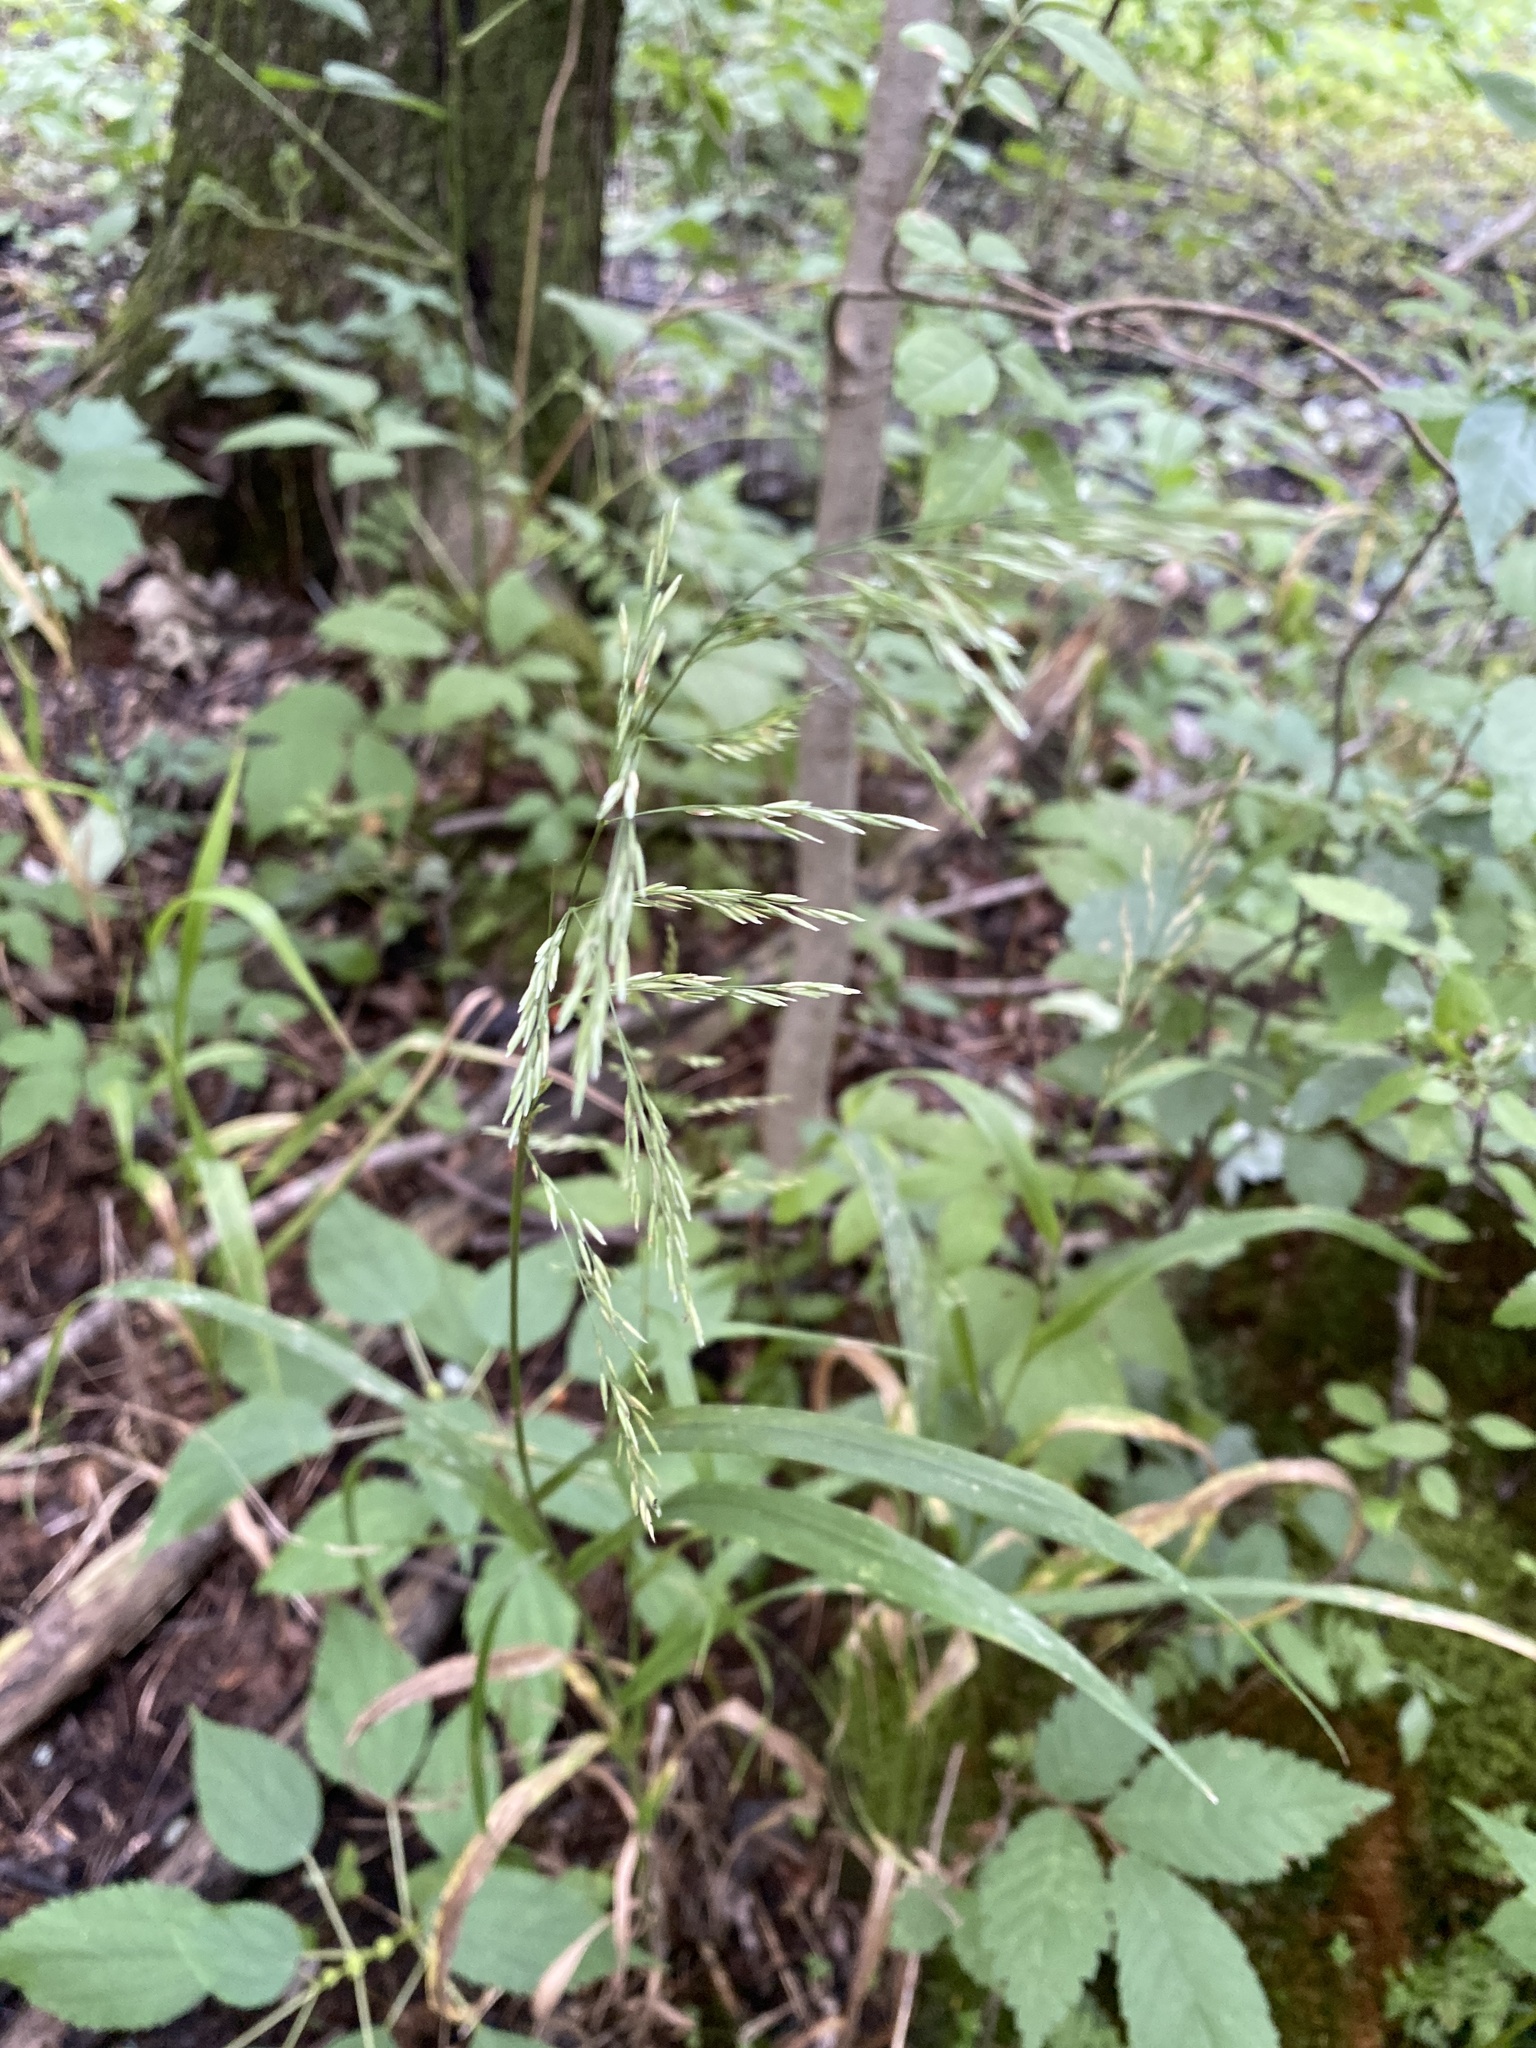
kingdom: Plantae
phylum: Tracheophyta
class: Liliopsida
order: Poales
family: Poaceae
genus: Cinna
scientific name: Cinna arundinacea
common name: Stout woodreed
